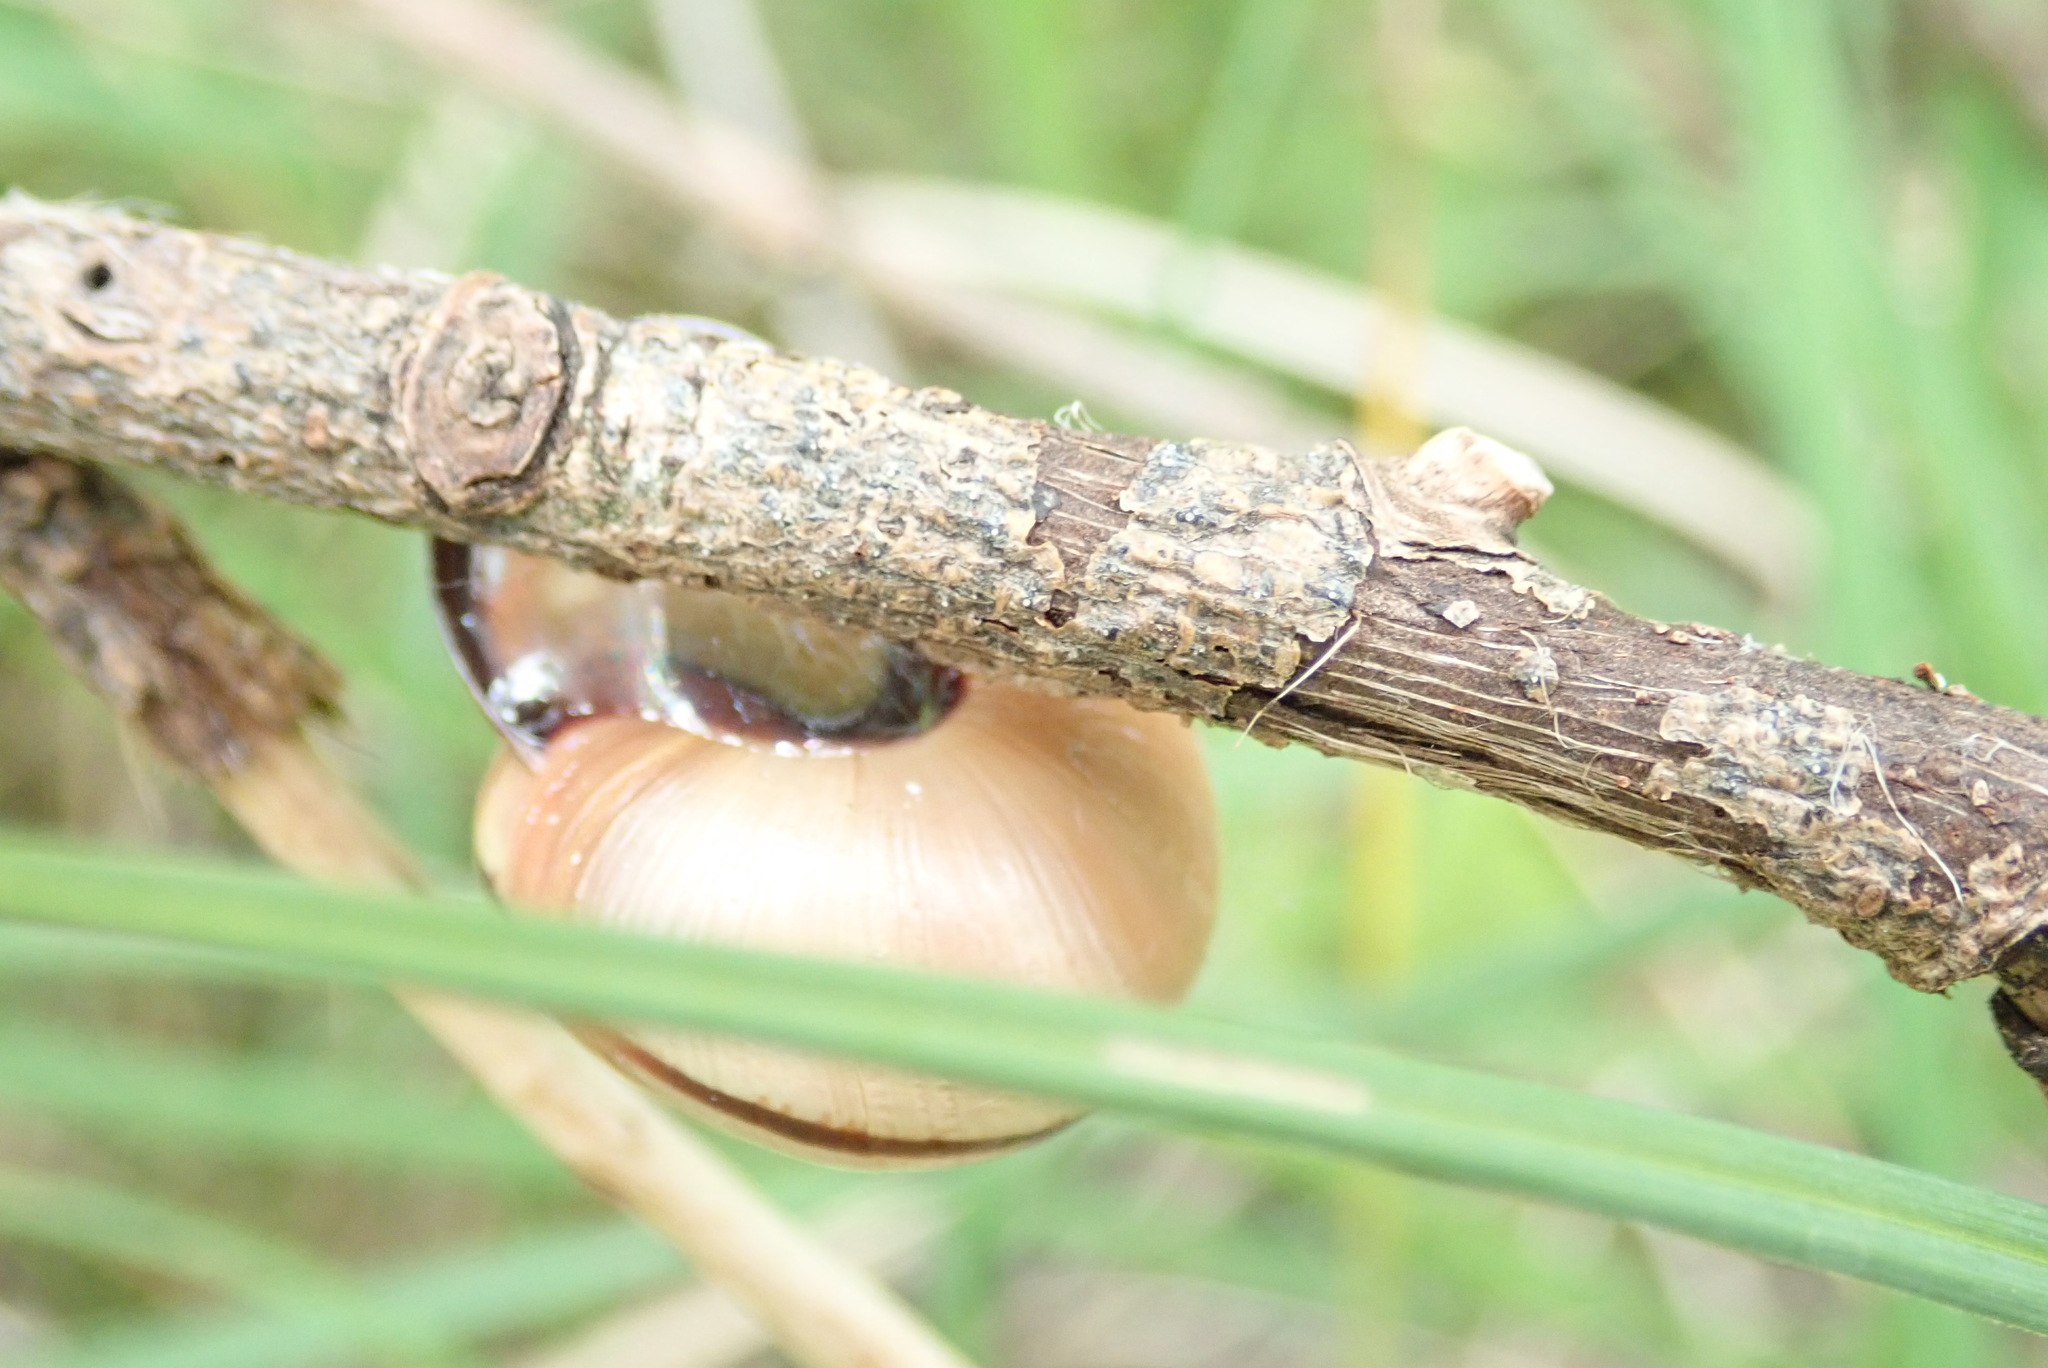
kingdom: Animalia
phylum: Mollusca
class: Gastropoda
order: Stylommatophora
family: Helicidae
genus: Cepaea
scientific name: Cepaea nemoralis
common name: Grovesnail
